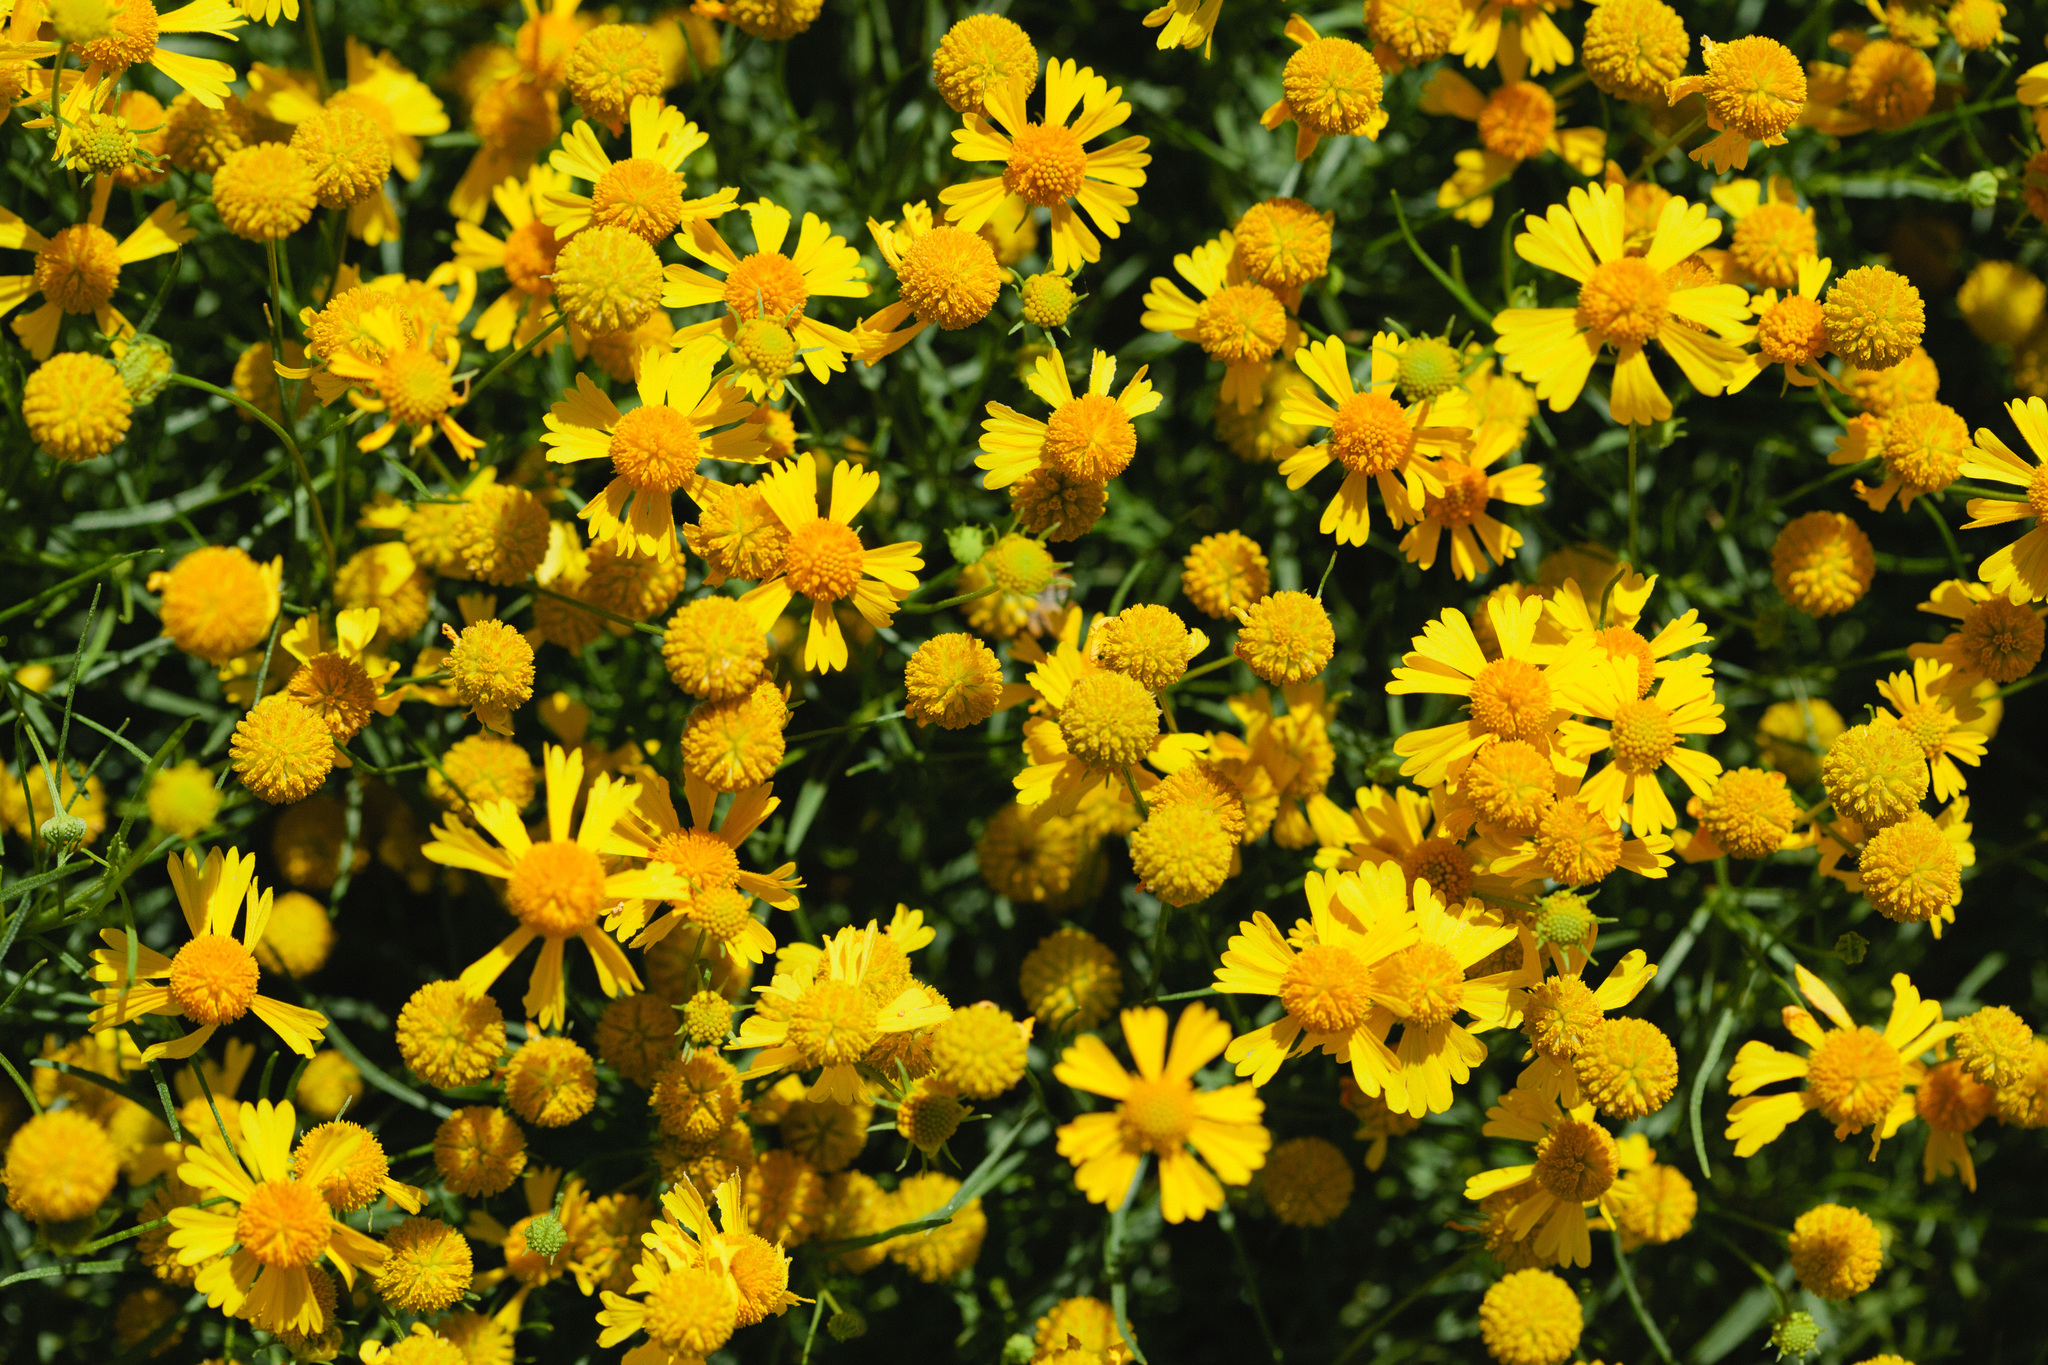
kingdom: Plantae
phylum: Tracheophyta
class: Magnoliopsida
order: Asterales
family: Asteraceae
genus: Helenium
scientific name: Helenium amarum
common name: Bitter sneezeweed
